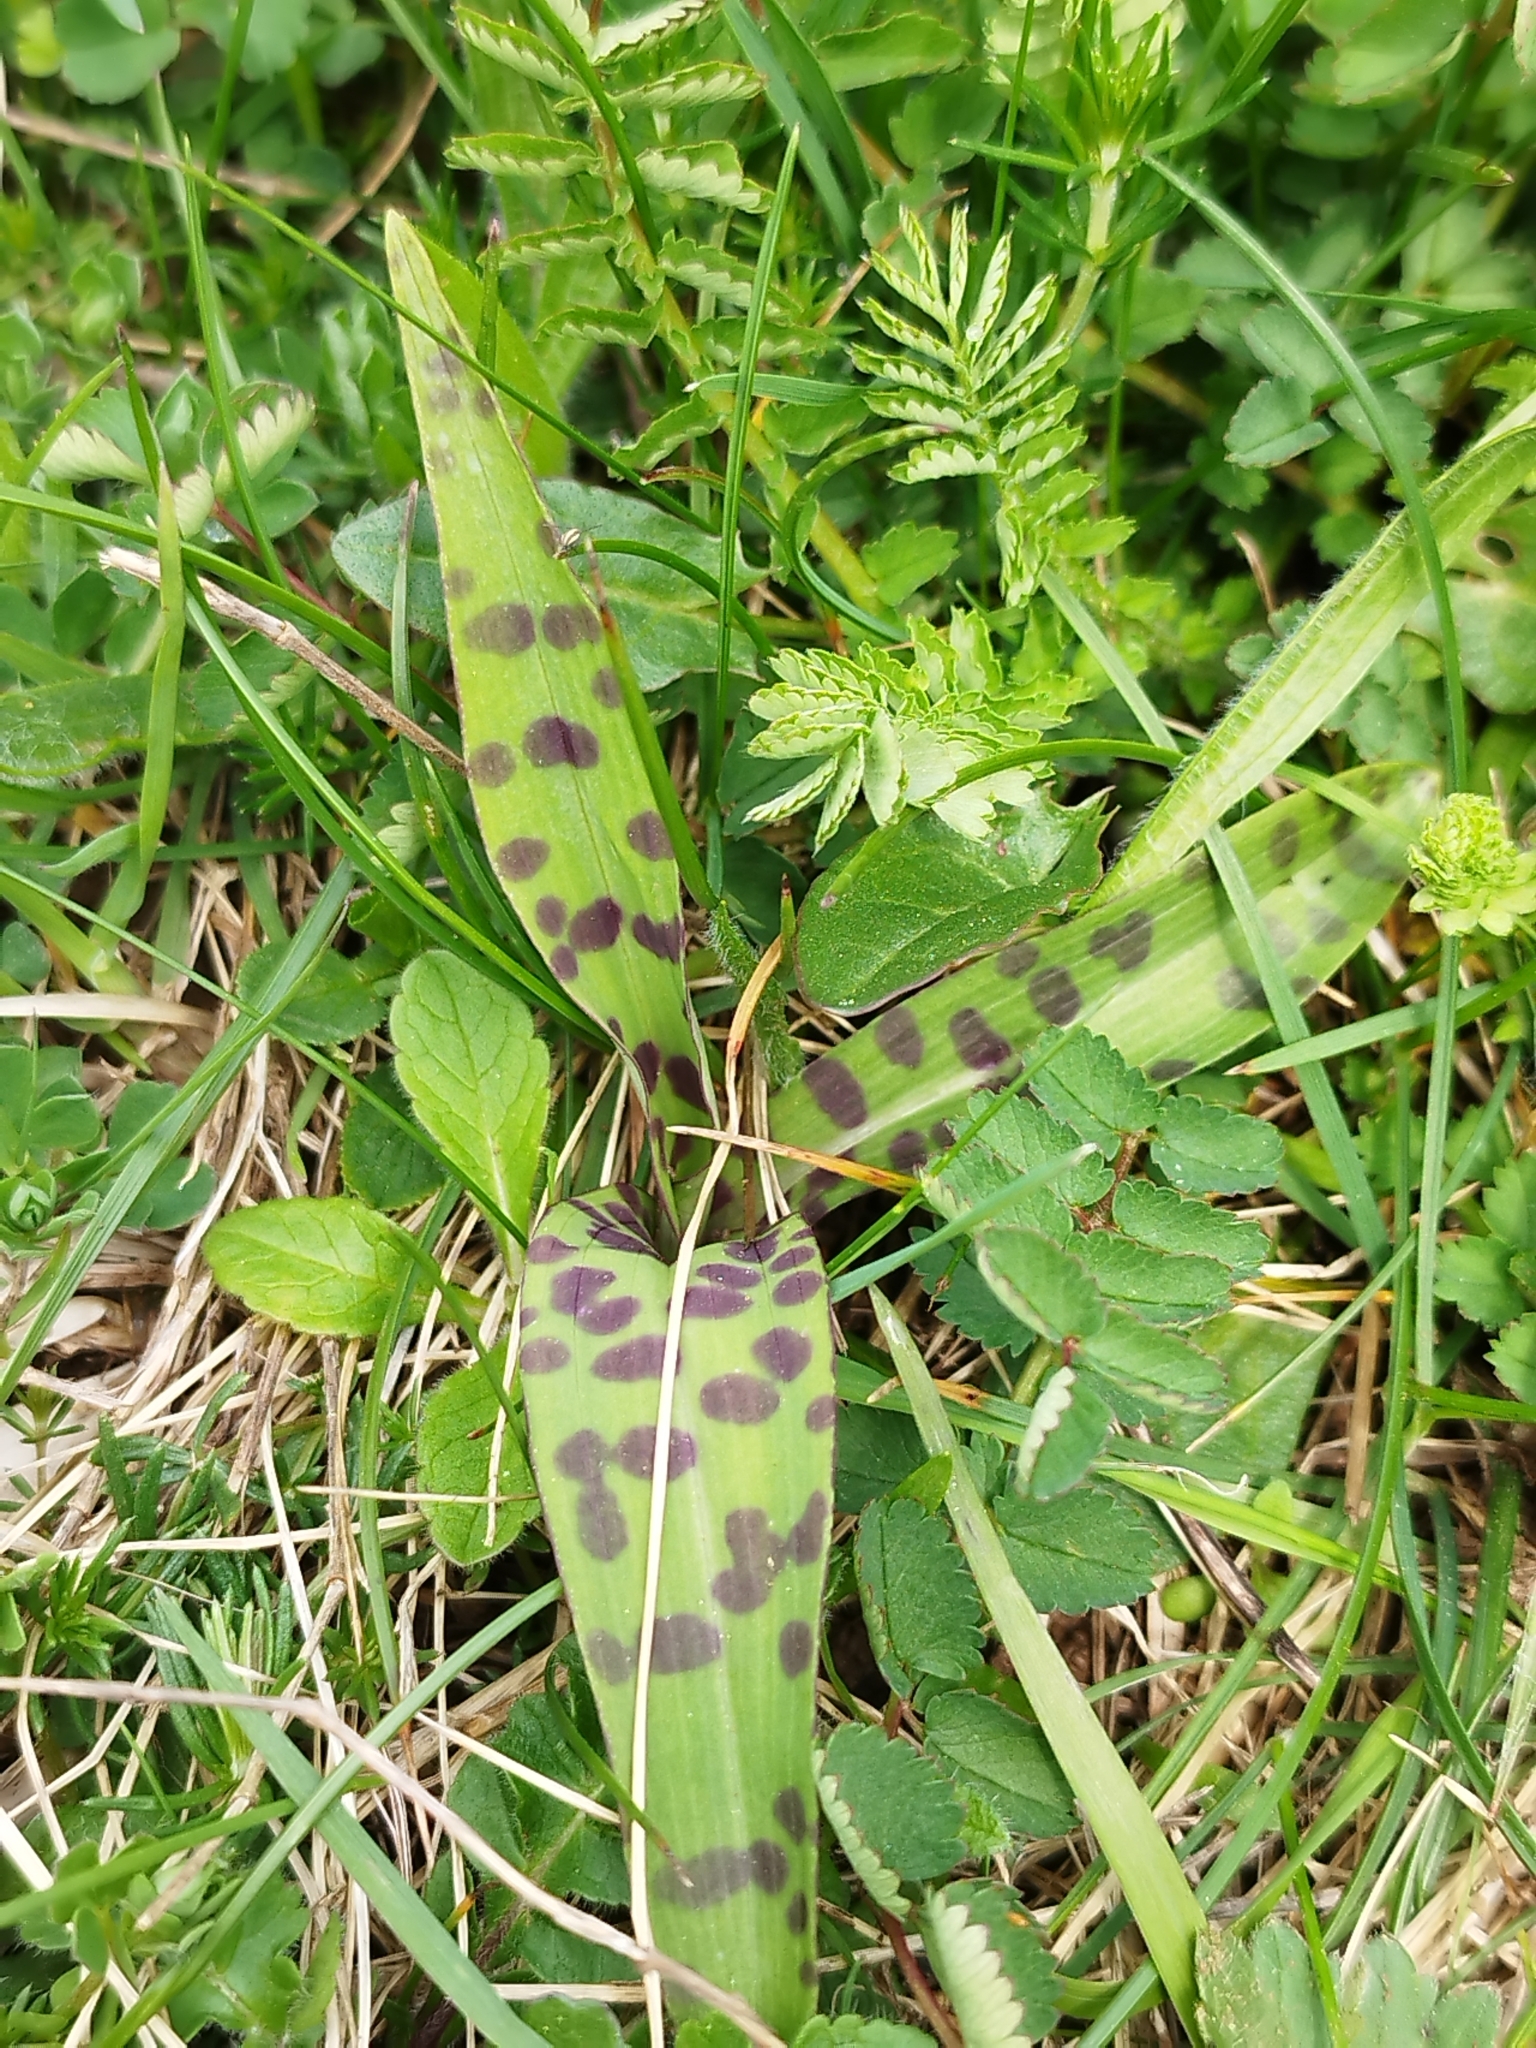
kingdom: Plantae
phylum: Tracheophyta
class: Liliopsida
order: Asparagales
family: Orchidaceae
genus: Dactylorhiza
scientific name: Dactylorhiza maculata
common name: Heath spotted-orchid
